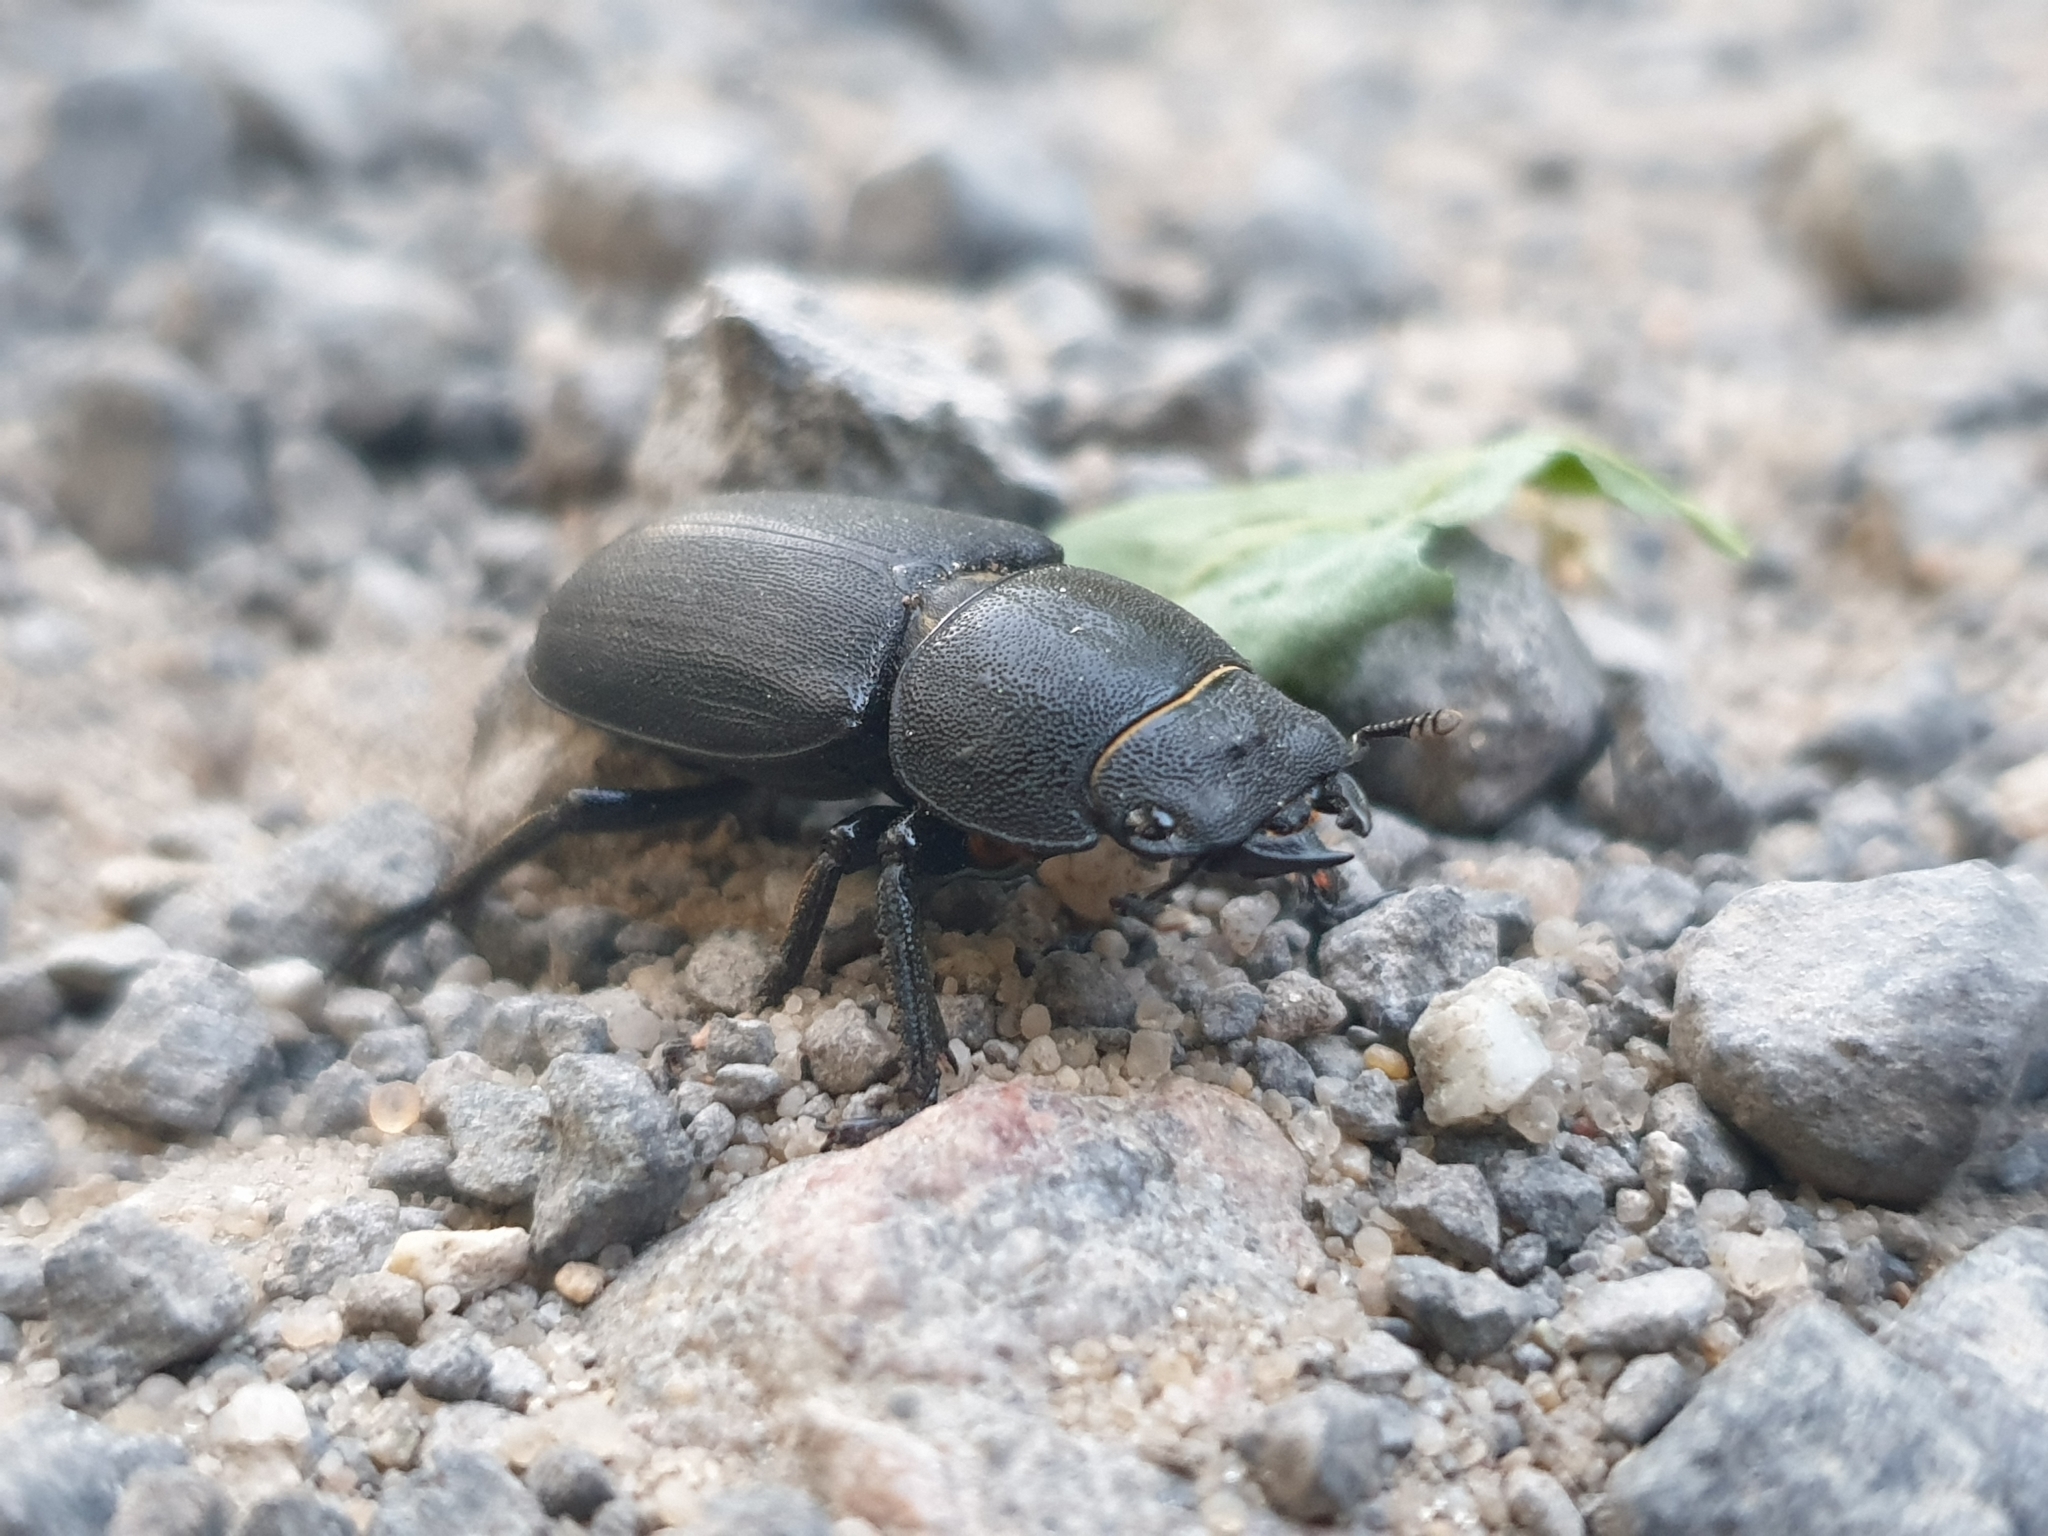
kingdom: Animalia
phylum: Arthropoda
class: Insecta
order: Coleoptera
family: Lucanidae
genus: Dorcus
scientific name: Dorcus parallelipipedus
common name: Lesser stag beetle
